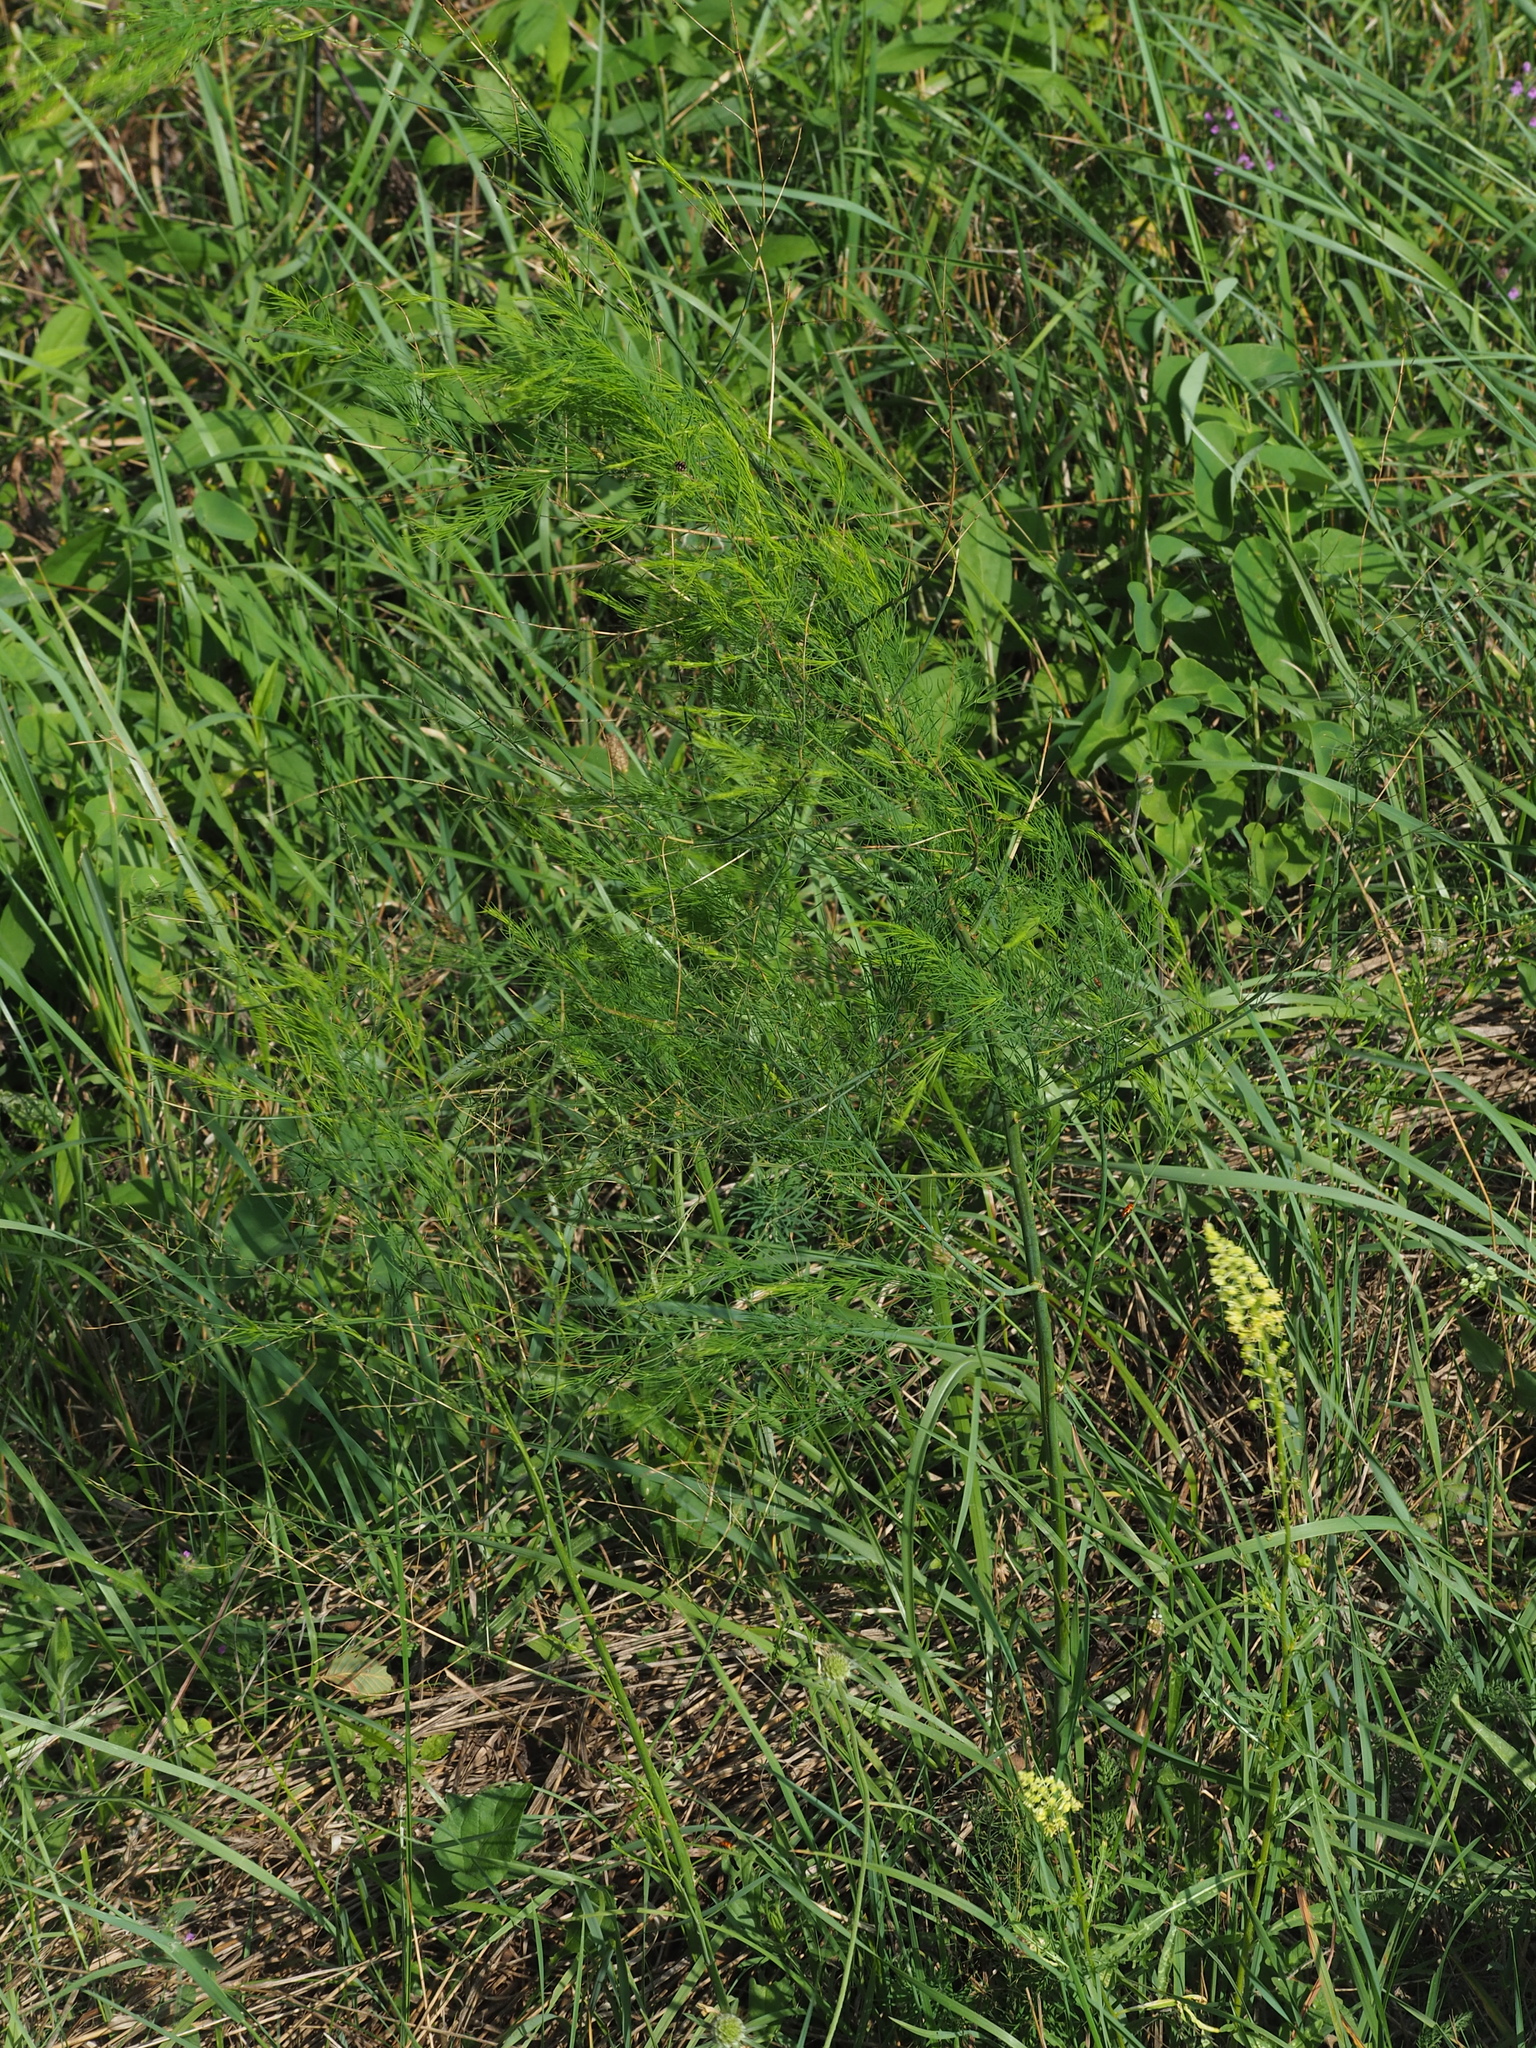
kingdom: Plantae
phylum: Tracheophyta
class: Liliopsida
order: Asparagales
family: Asparagaceae
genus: Asparagus
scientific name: Asparagus officinalis
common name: Garden asparagus
